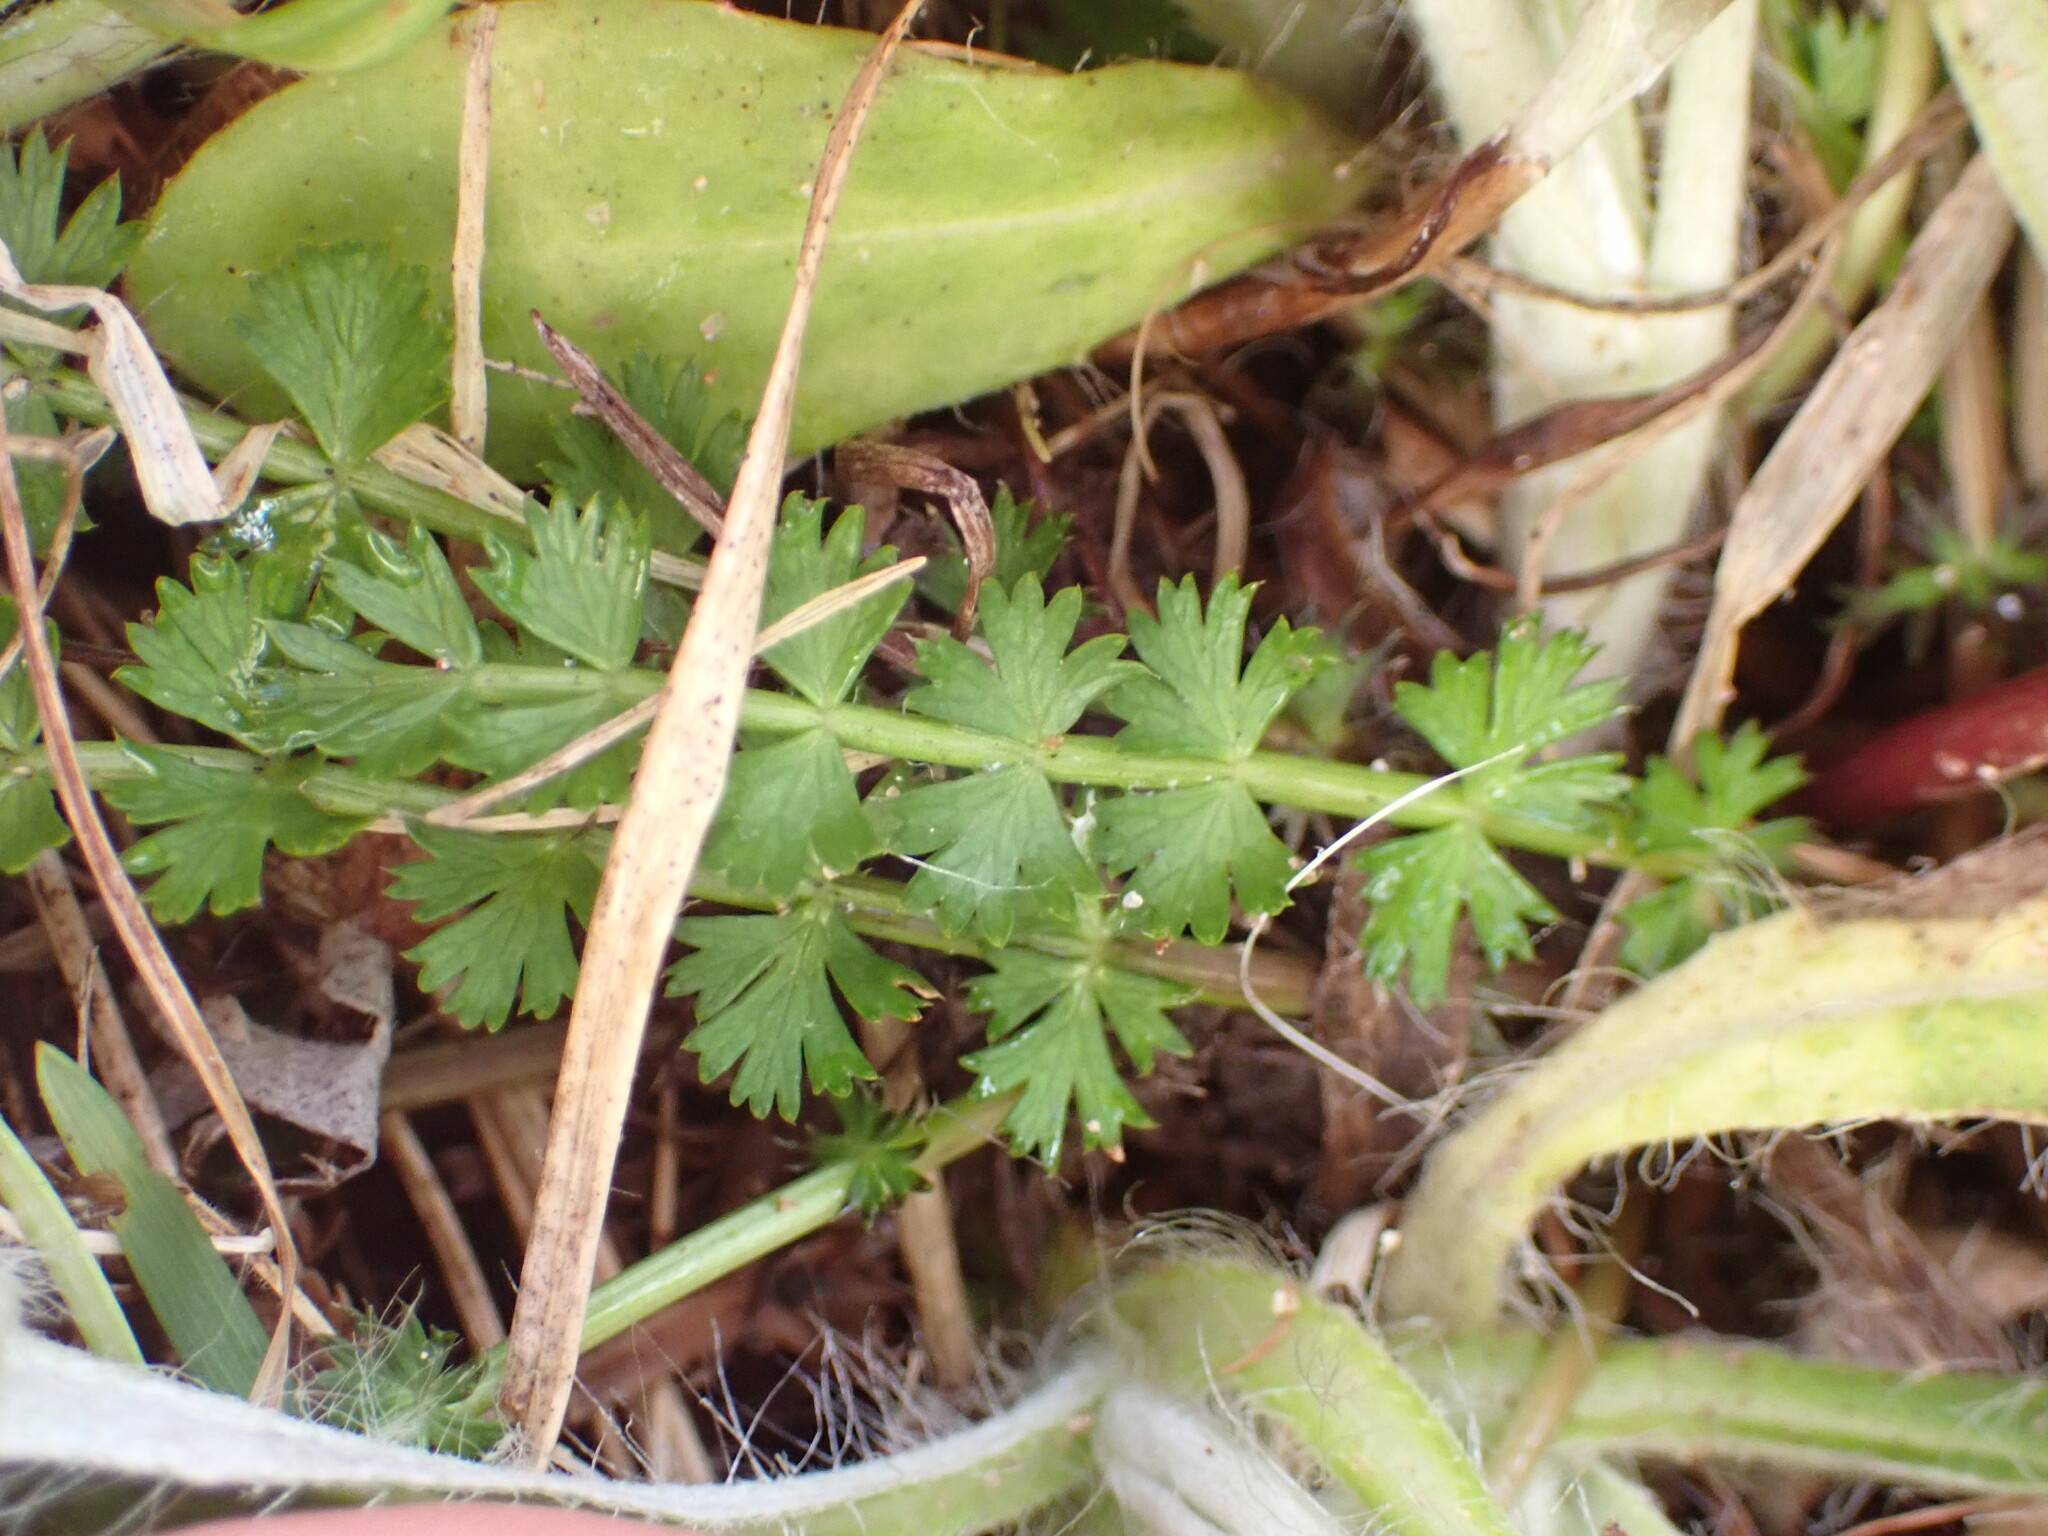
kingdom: Plantae
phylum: Tracheophyta
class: Magnoliopsida
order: Apiales
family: Apiaceae
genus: Anisotome
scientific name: Anisotome aromatica
